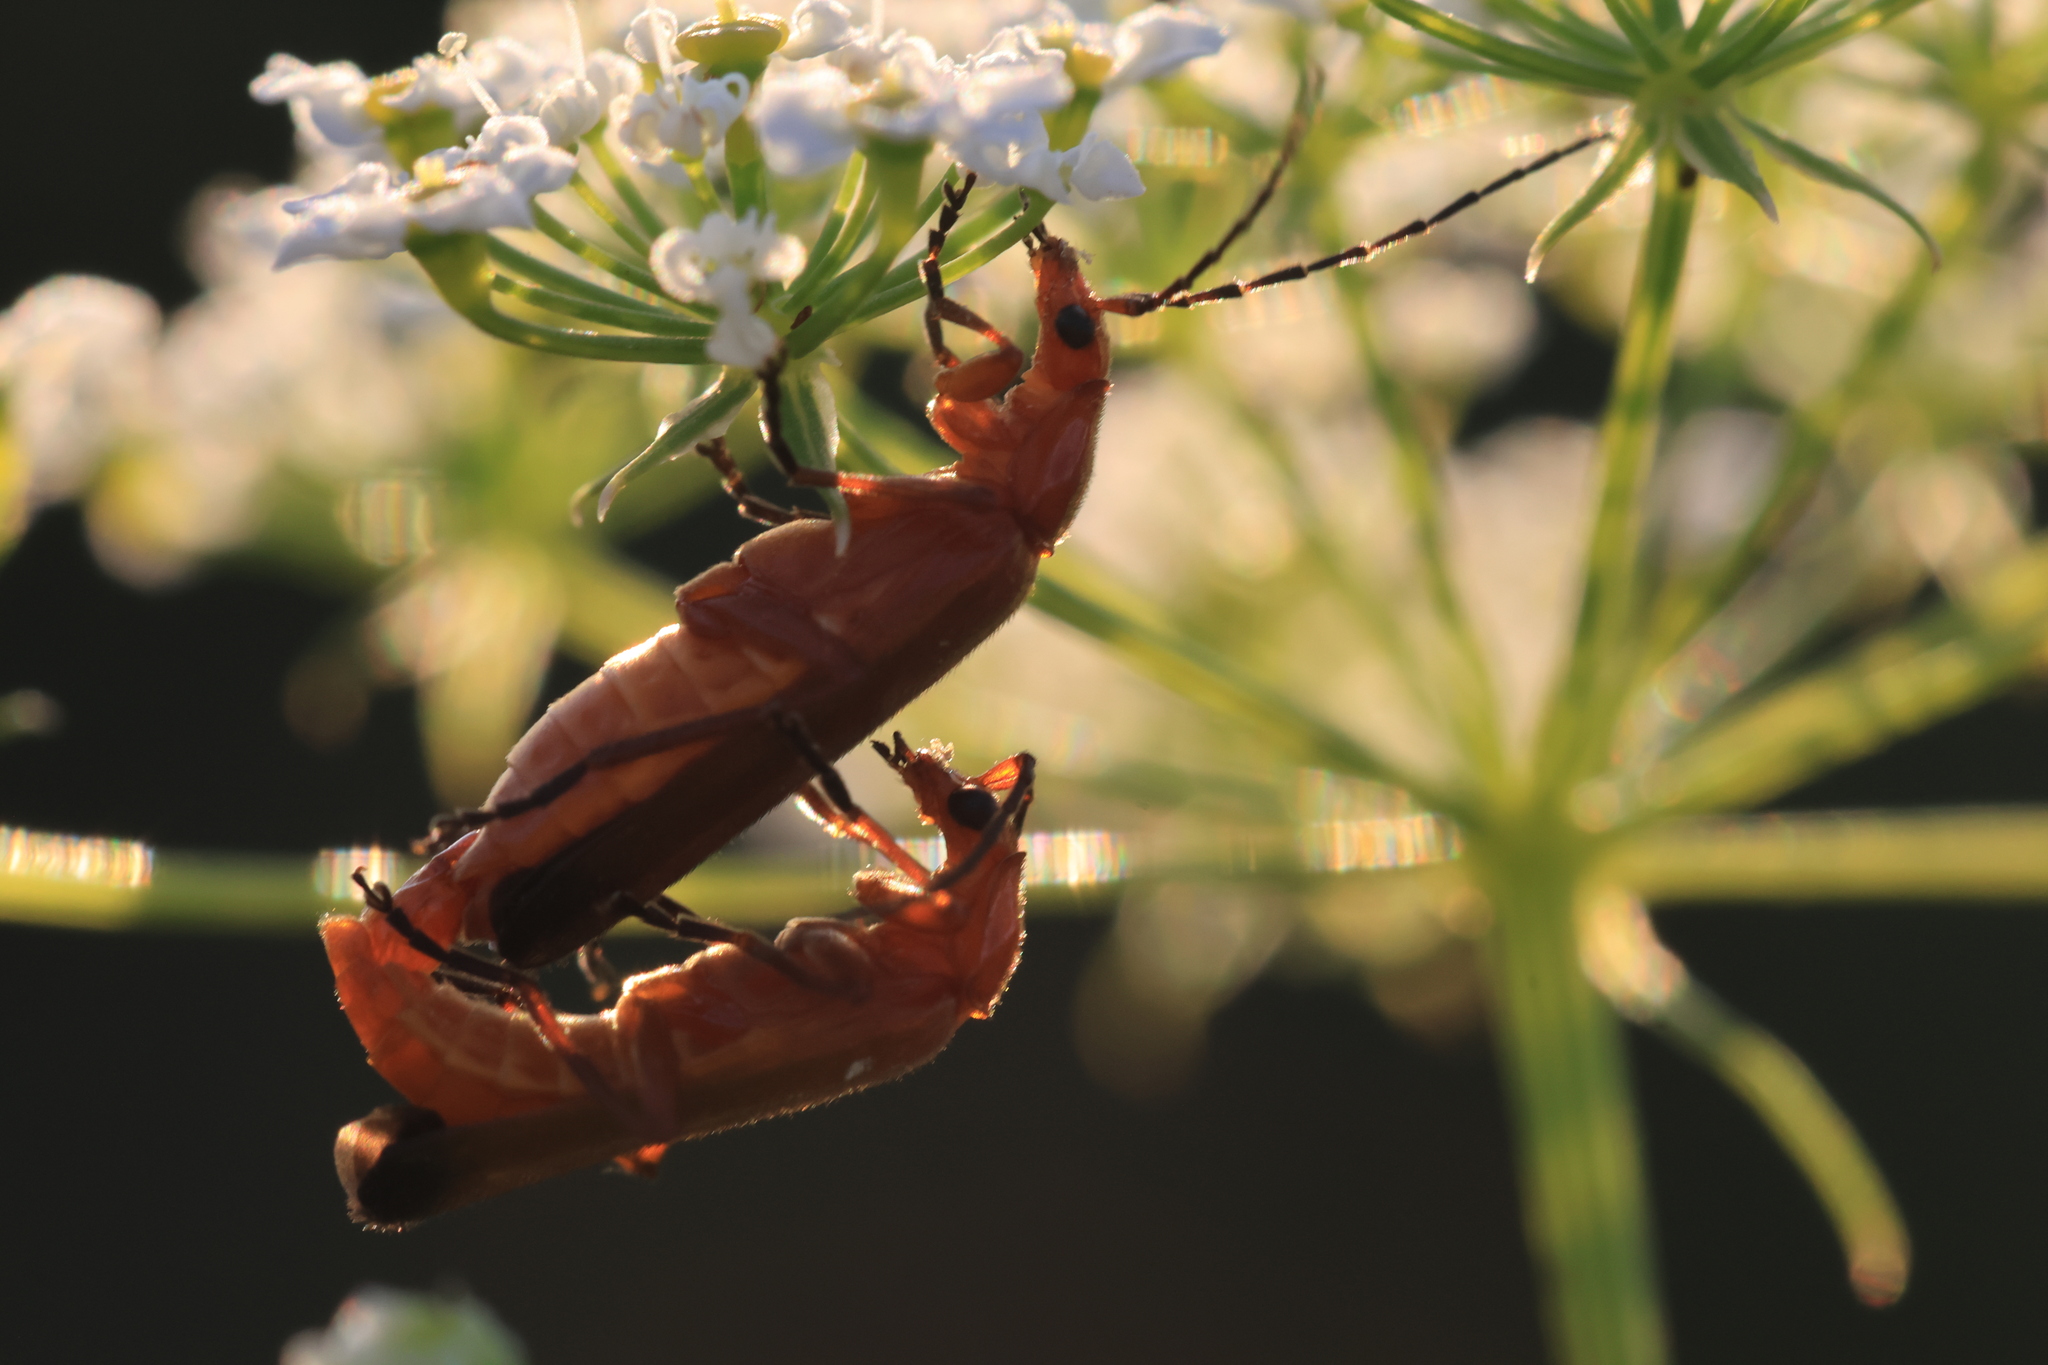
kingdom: Animalia
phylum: Arthropoda
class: Insecta
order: Coleoptera
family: Cantharidae
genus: Rhagonycha
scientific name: Rhagonycha fulva
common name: Common red soldier beetle
